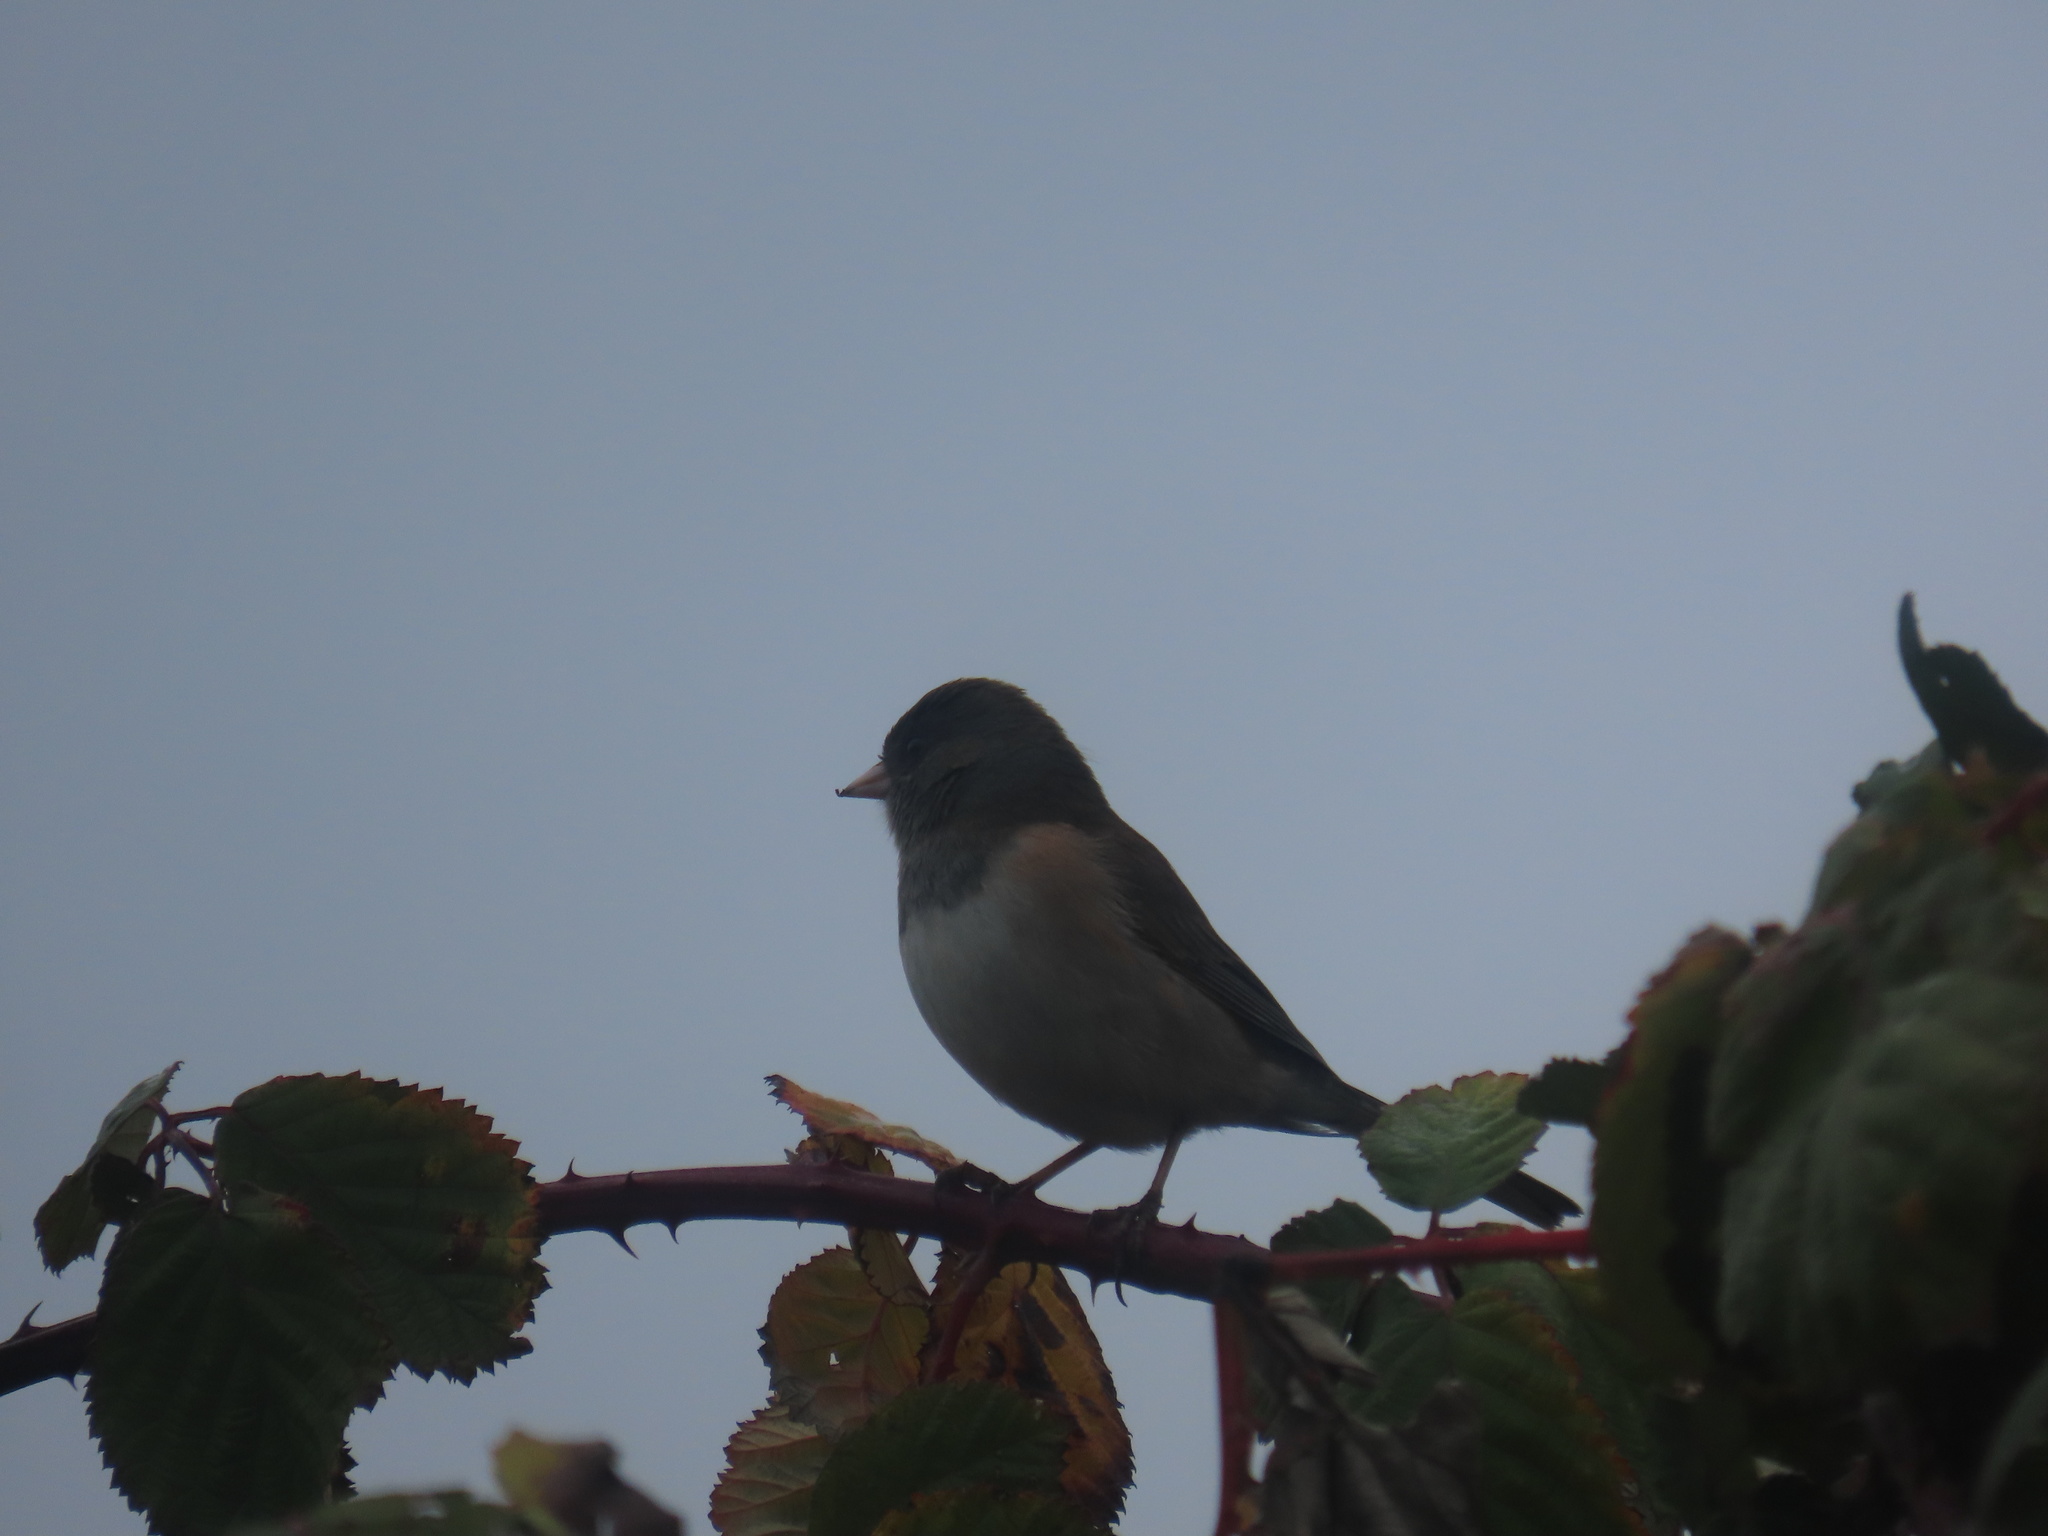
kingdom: Animalia
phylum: Chordata
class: Aves
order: Passeriformes
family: Passerellidae
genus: Junco
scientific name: Junco hyemalis
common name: Dark-eyed junco
